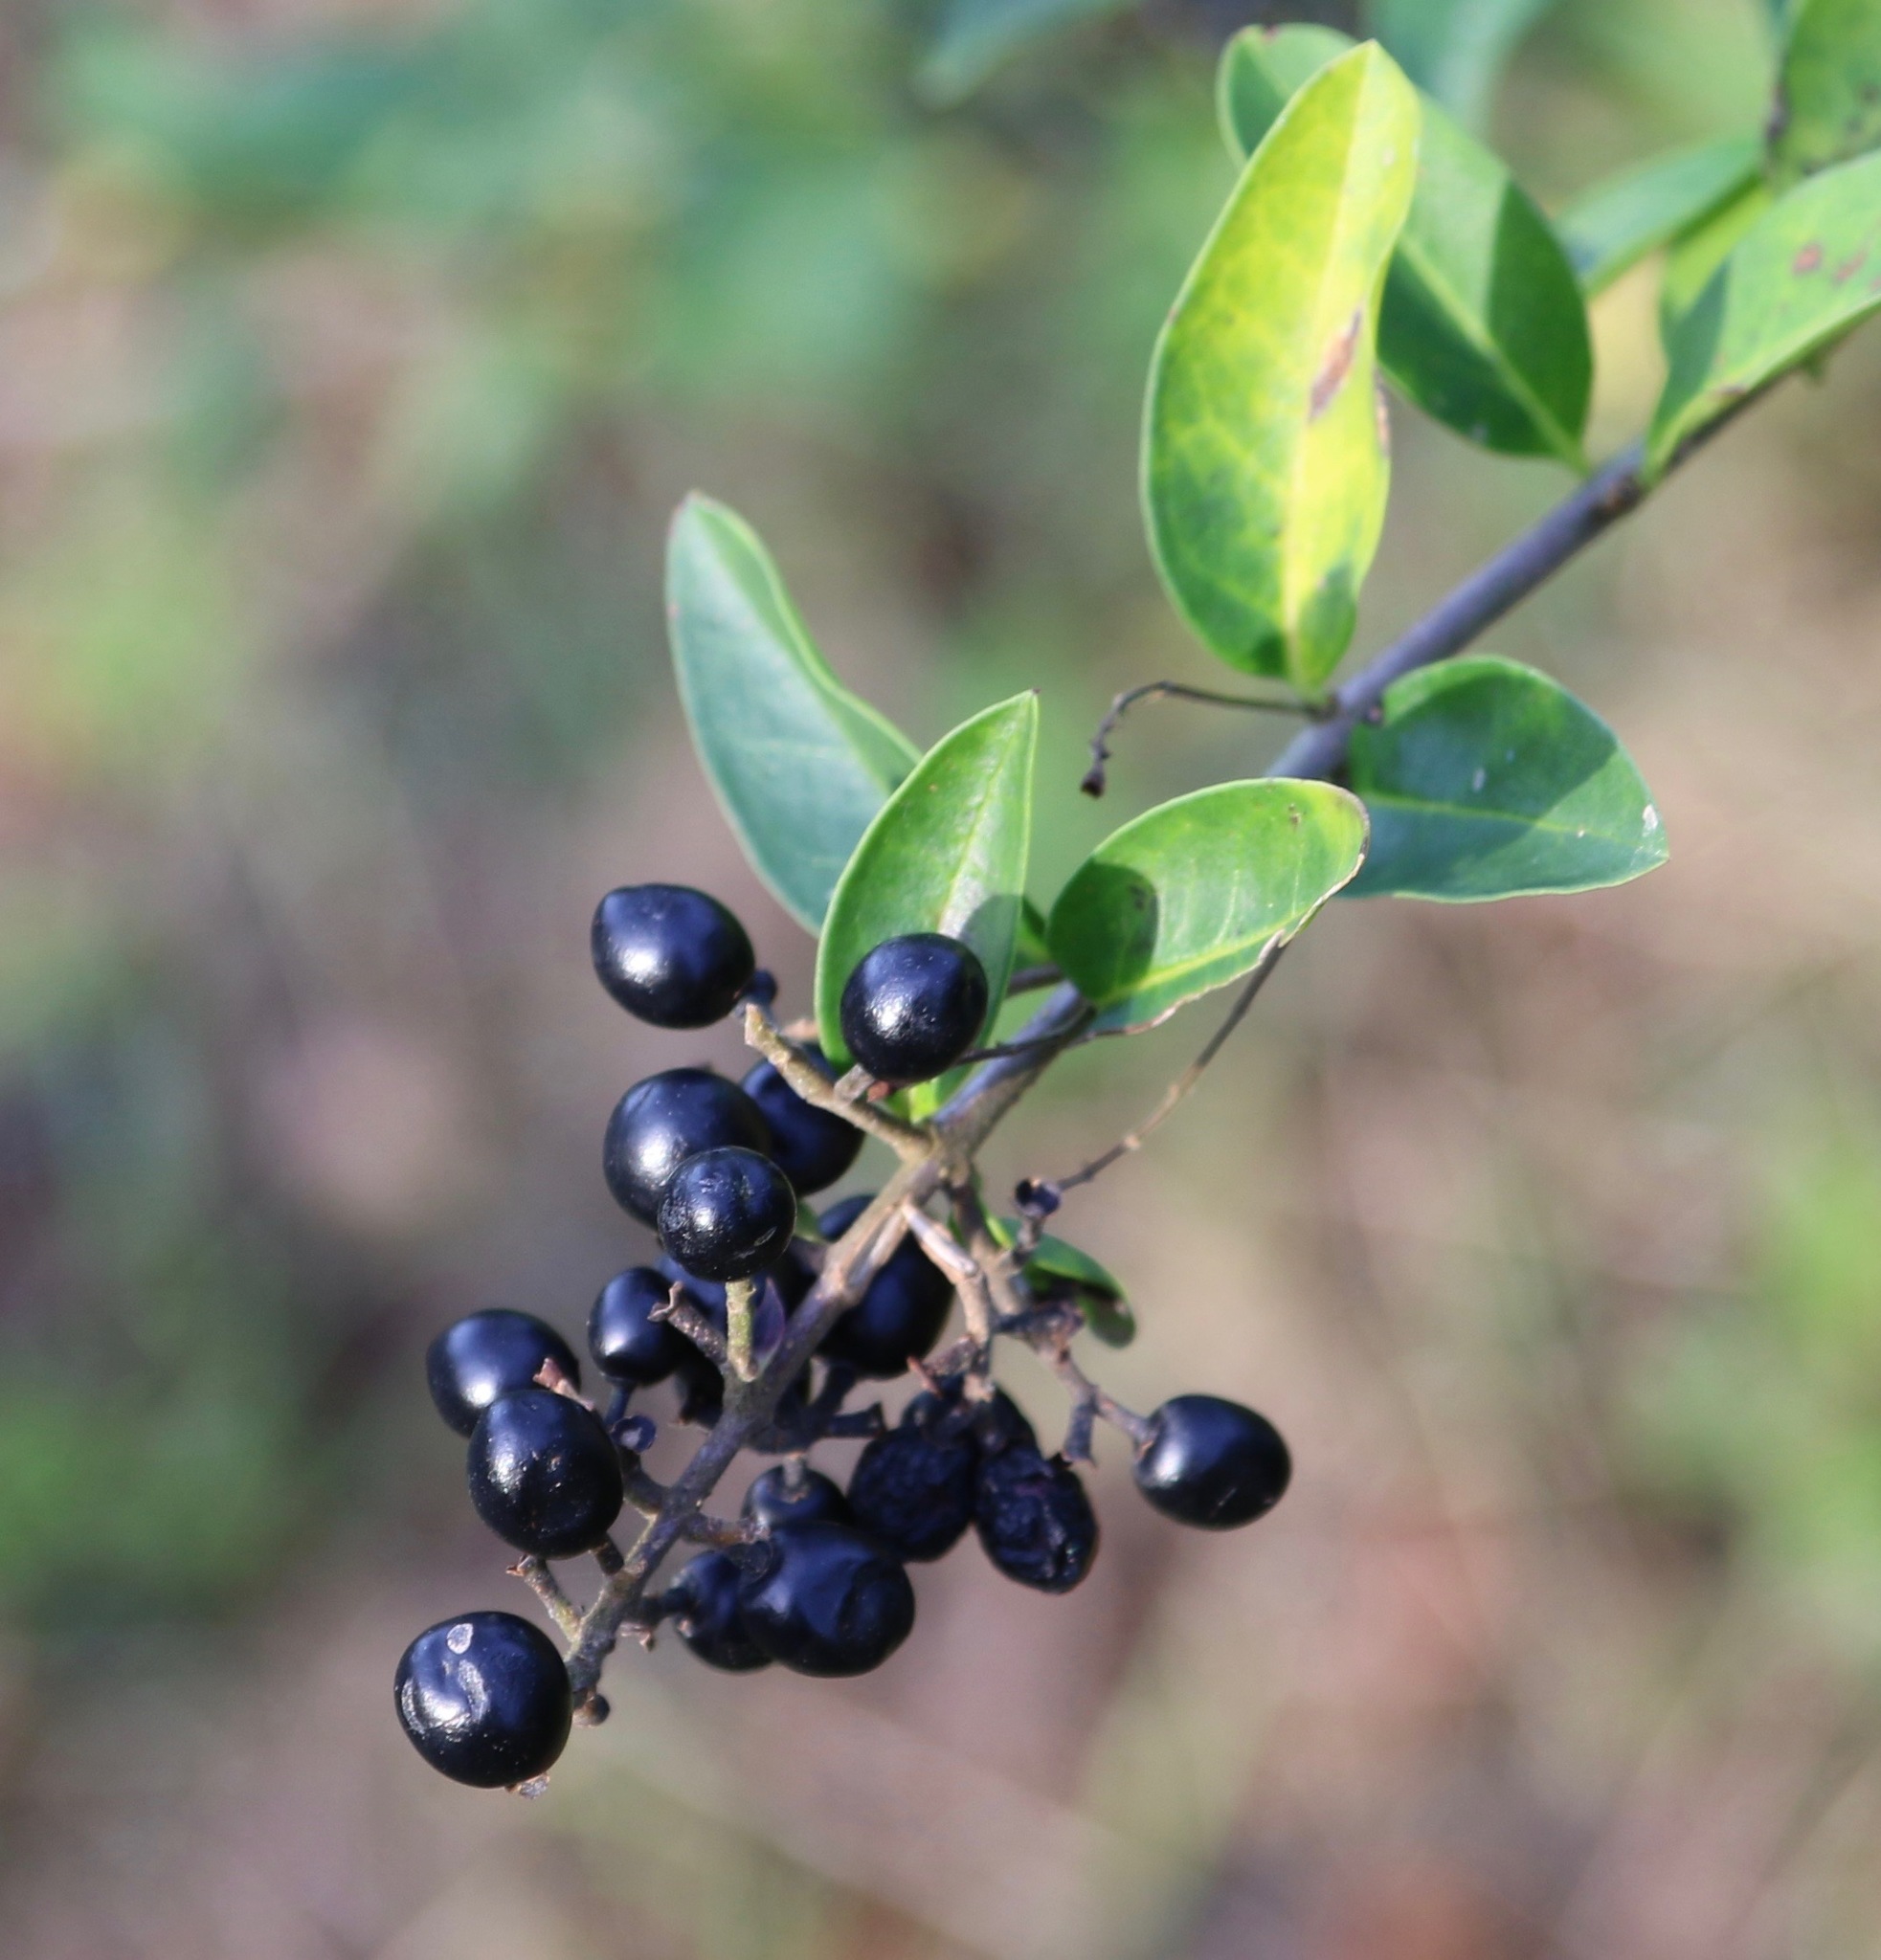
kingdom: Plantae
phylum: Tracheophyta
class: Magnoliopsida
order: Lamiales
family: Oleaceae
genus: Ligustrum
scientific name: Ligustrum vulgare
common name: Wild privet
